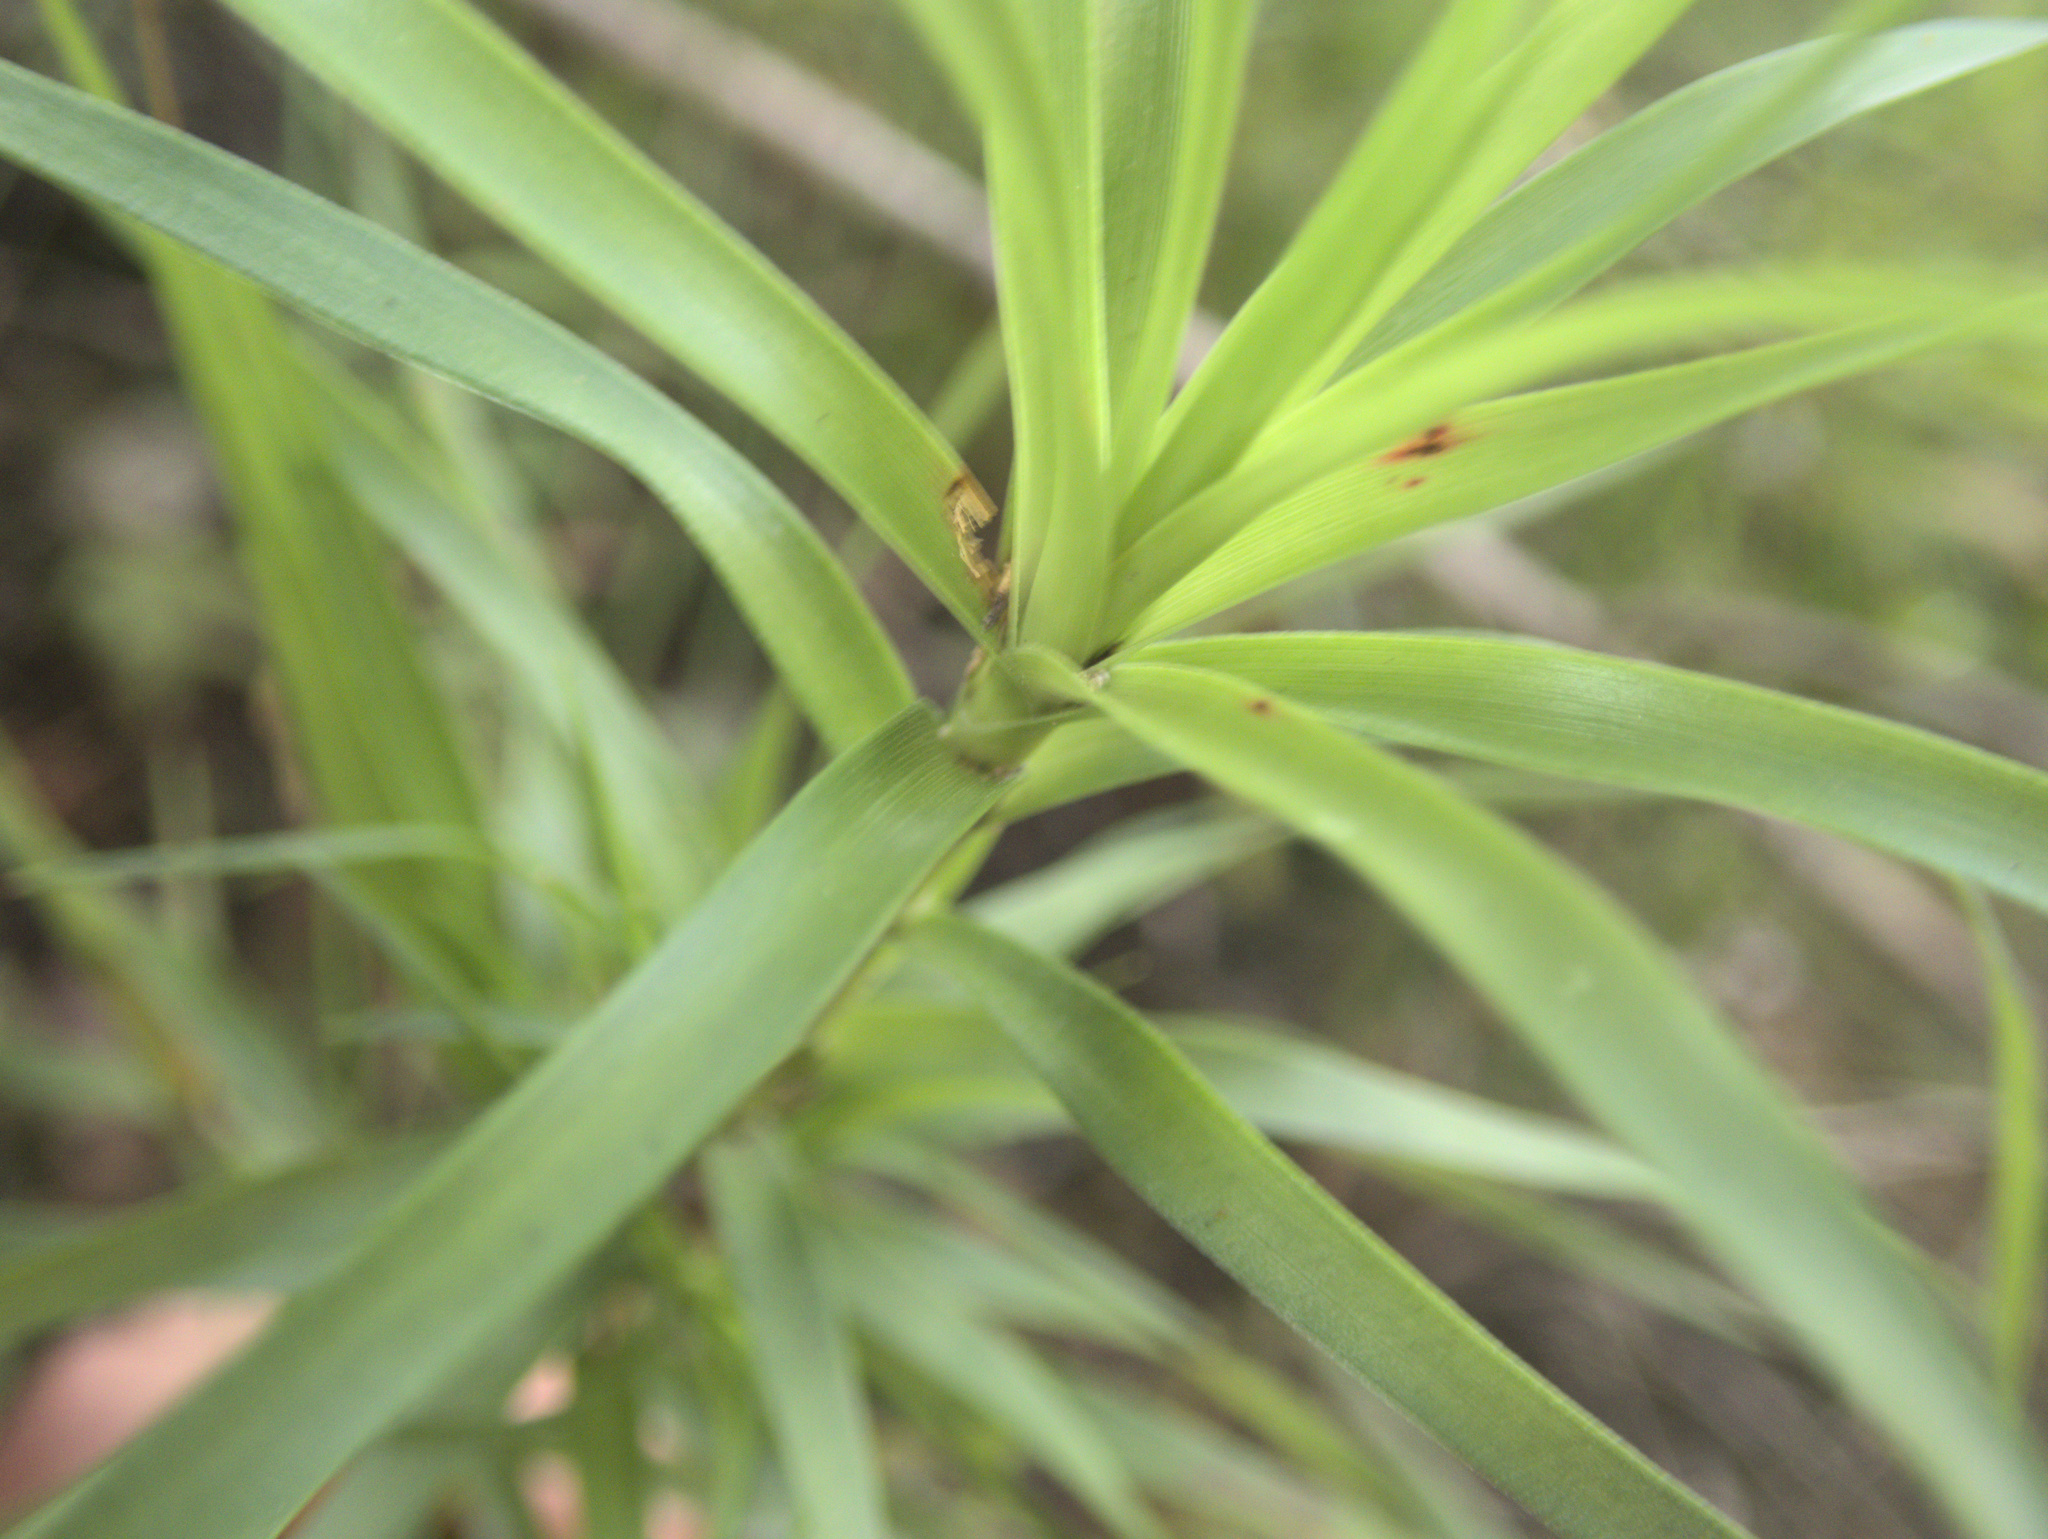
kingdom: Plantae
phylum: Tracheophyta
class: Magnoliopsida
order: Ericales
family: Ericaceae
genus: Dracophyllum
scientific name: Dracophyllum sinclairii
